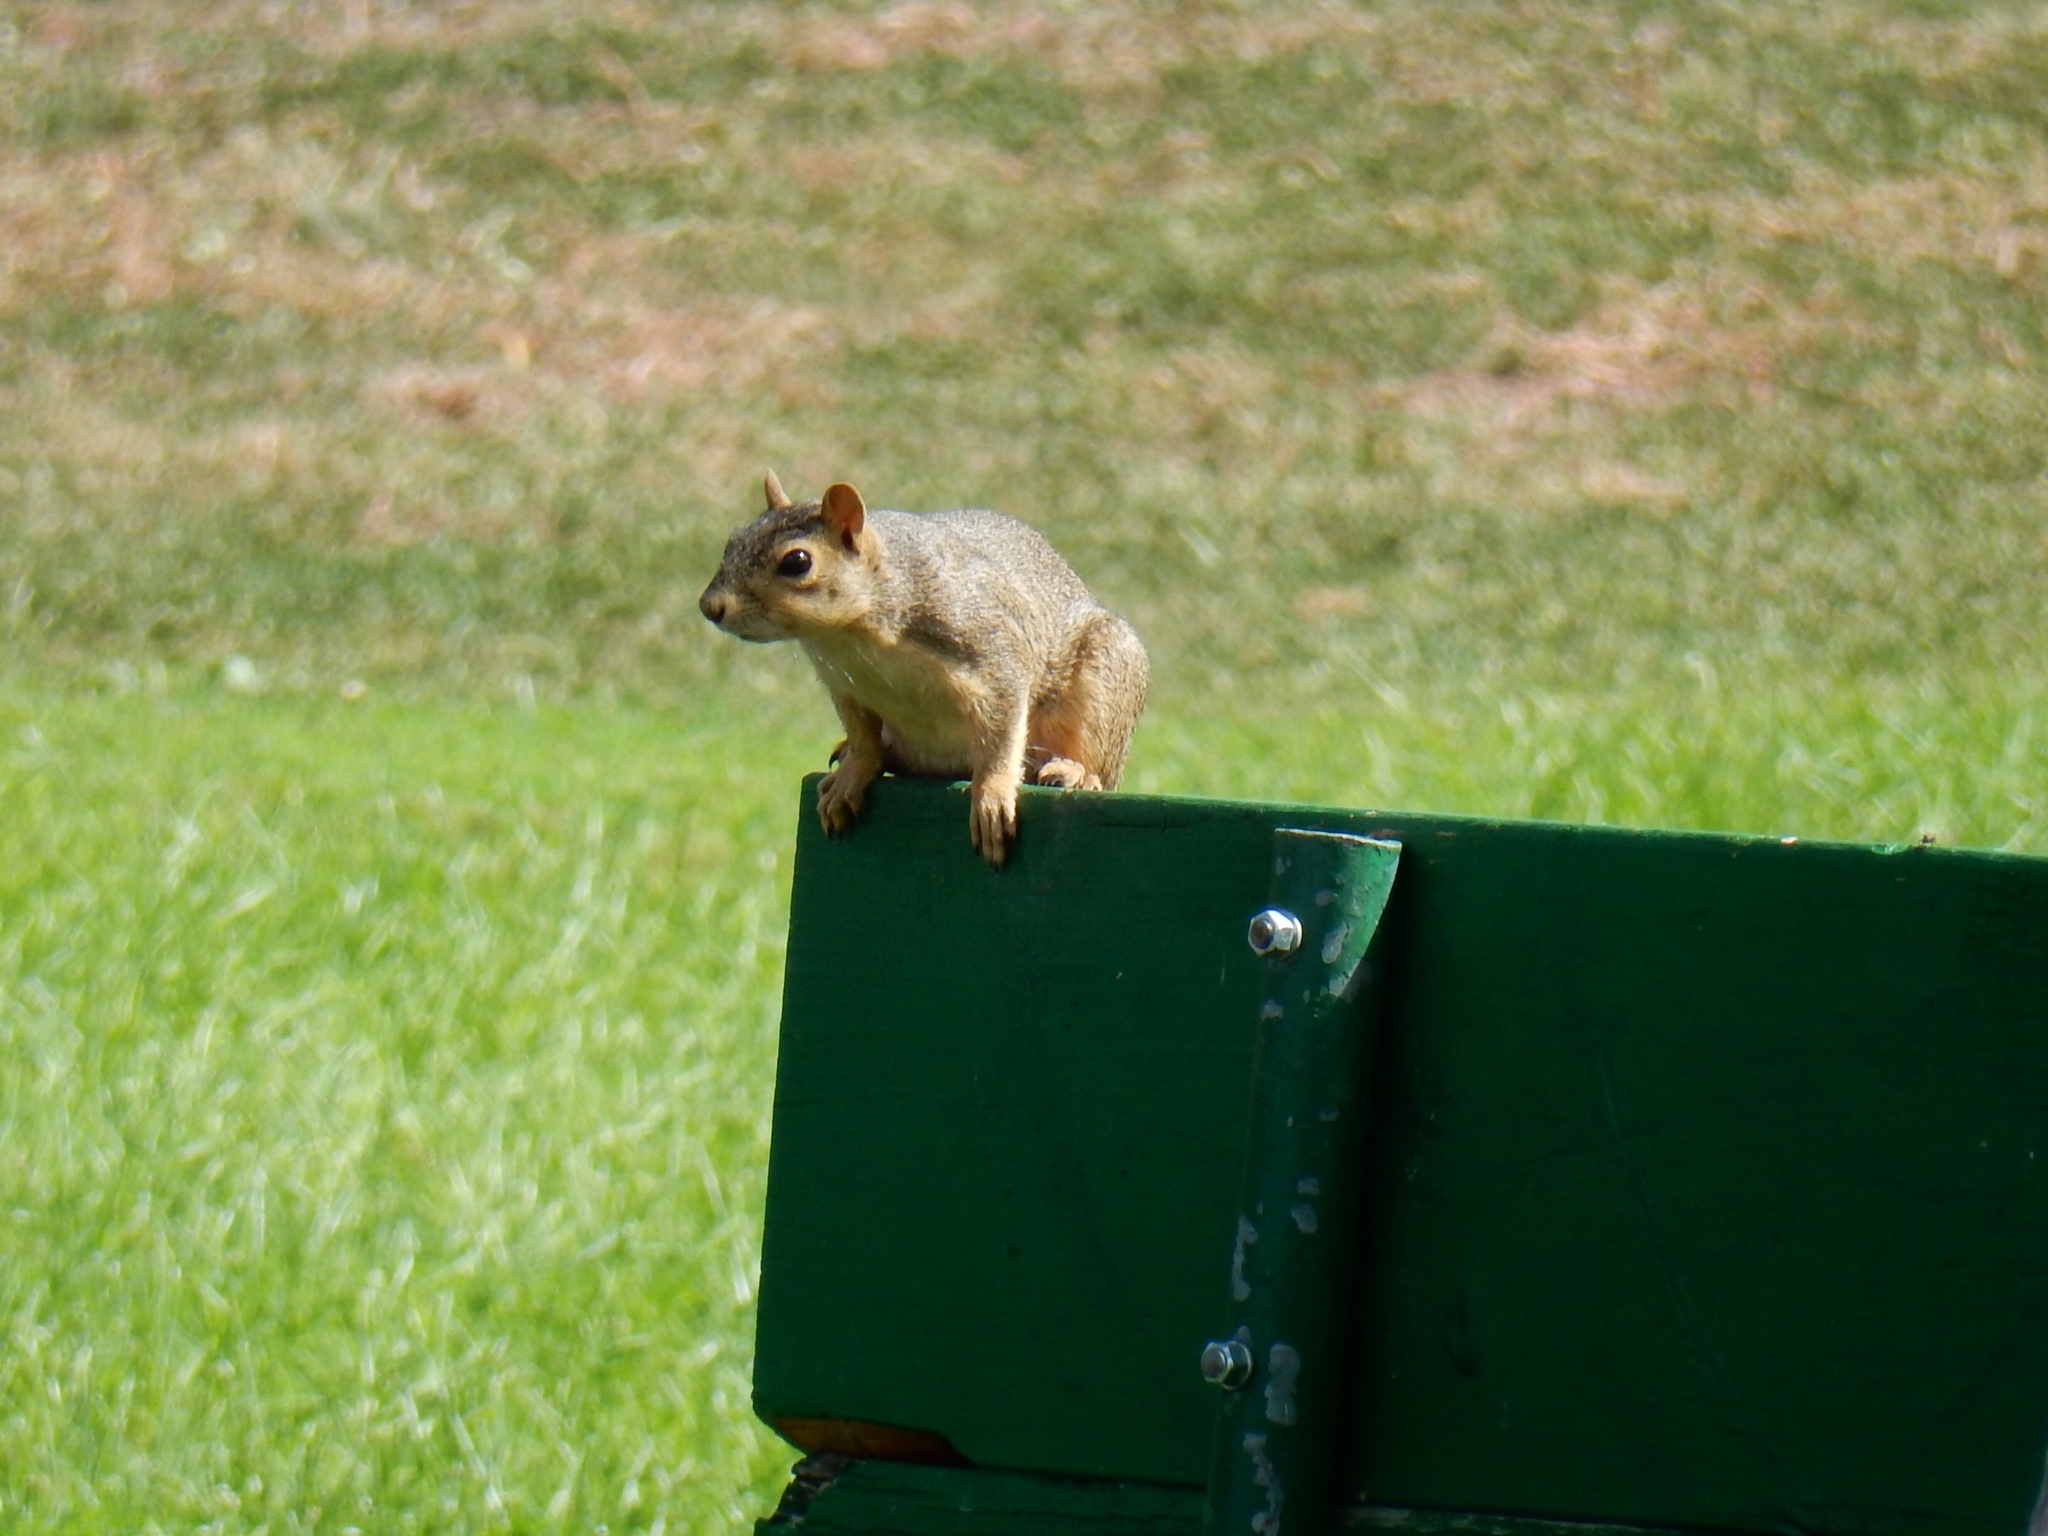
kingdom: Animalia
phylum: Chordata
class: Mammalia
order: Rodentia
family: Sciuridae
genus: Sciurus
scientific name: Sciurus niger
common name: Fox squirrel
